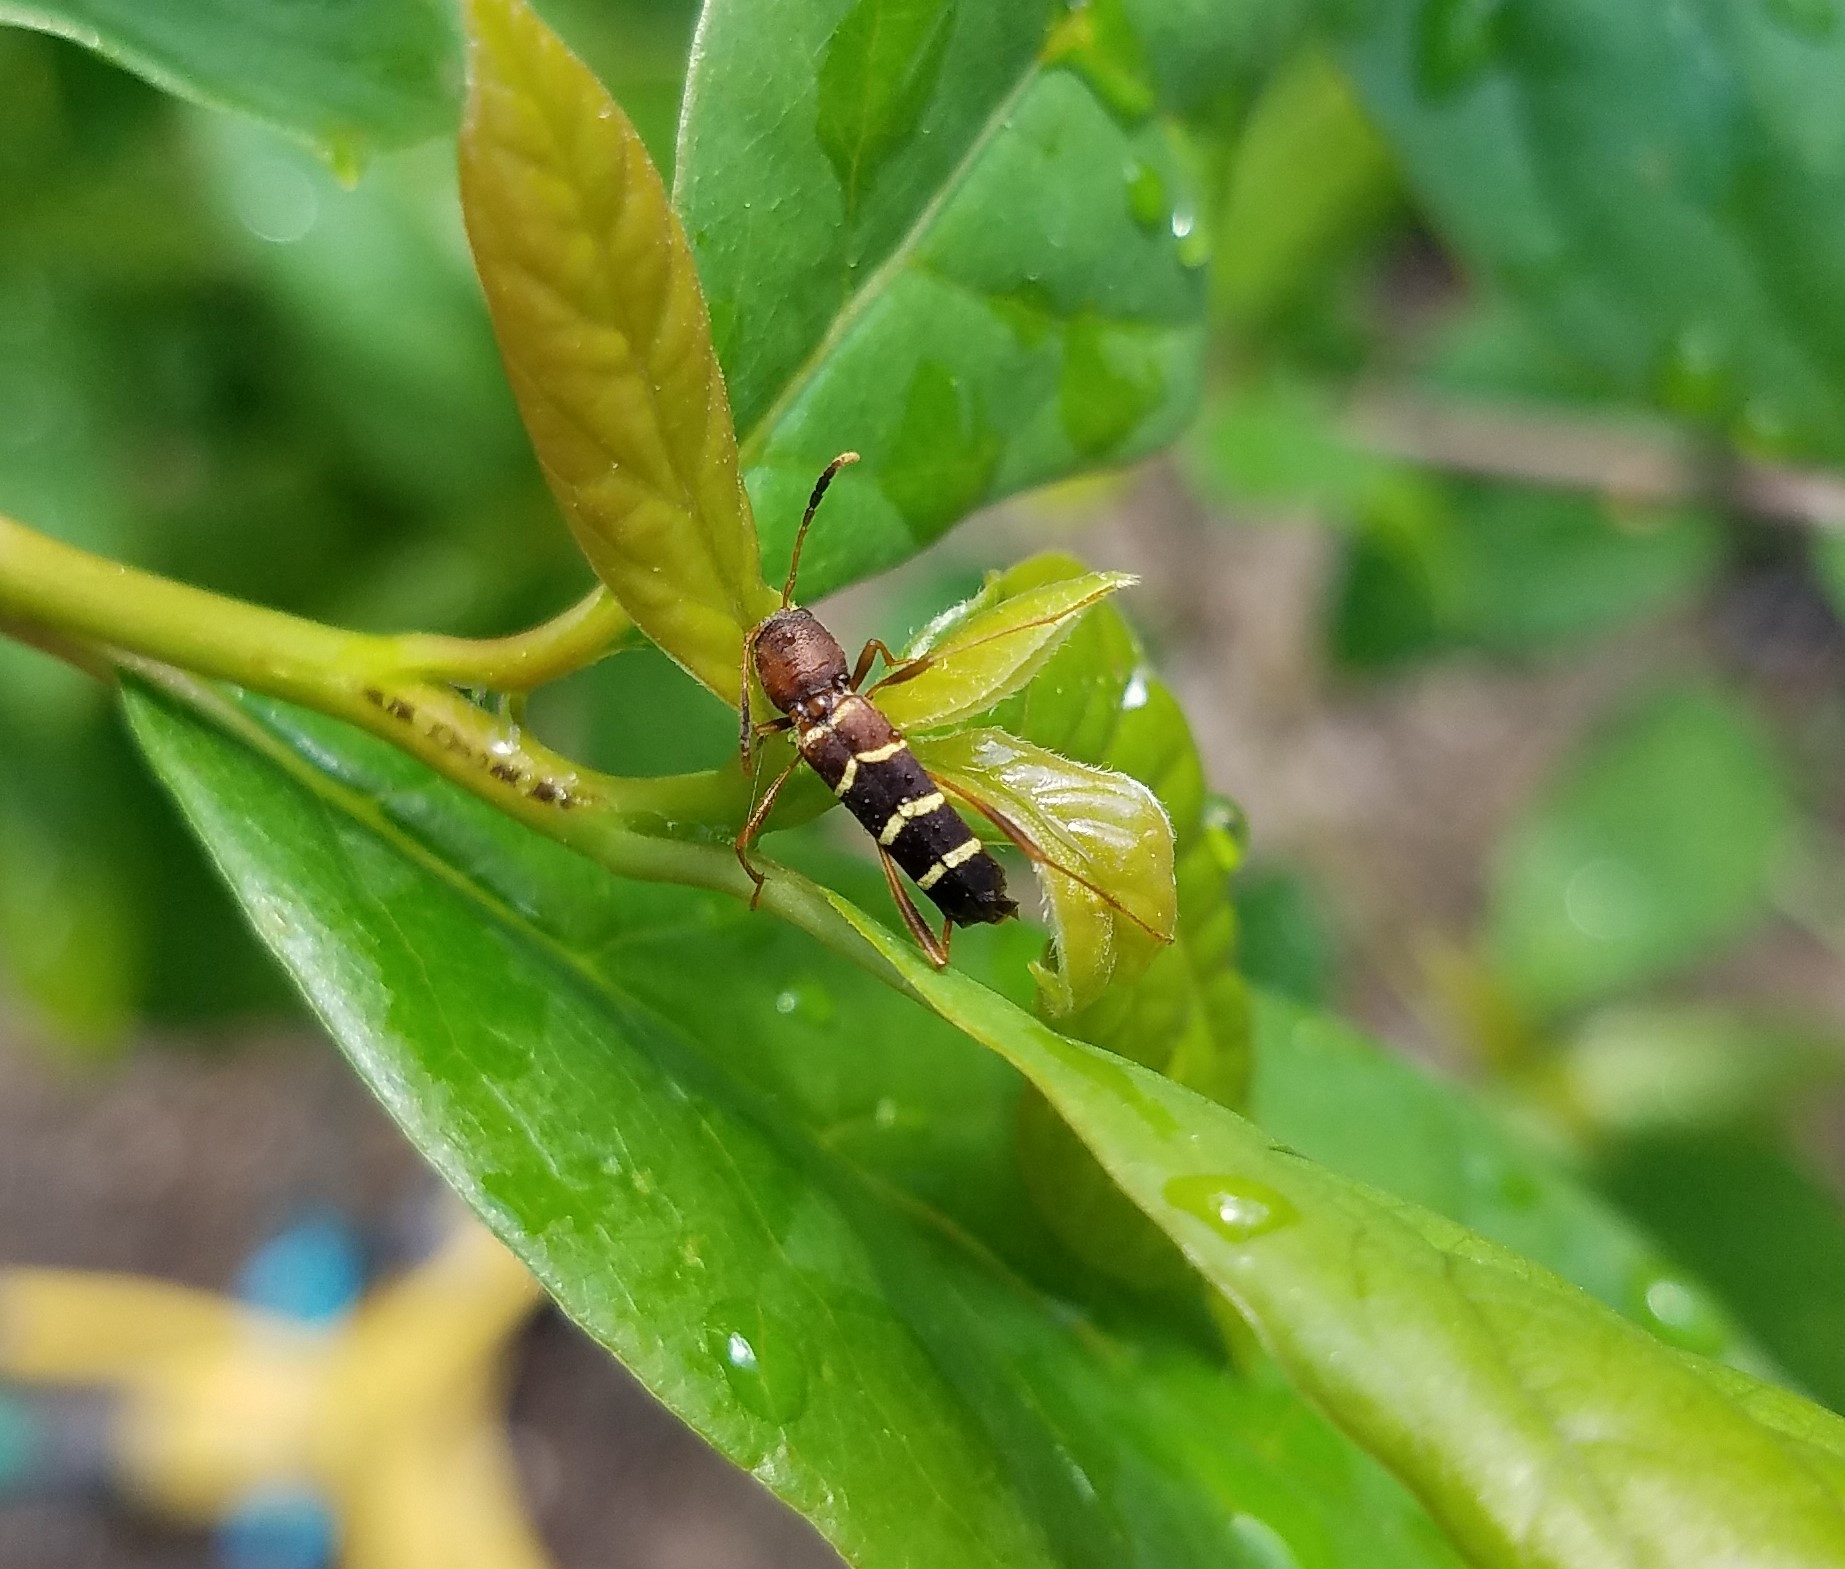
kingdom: Animalia
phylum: Arthropoda
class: Insecta
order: Coleoptera
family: Cerambycidae
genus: Neoclytus
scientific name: Neoclytus acuminatus
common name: Read-headed ash borer
